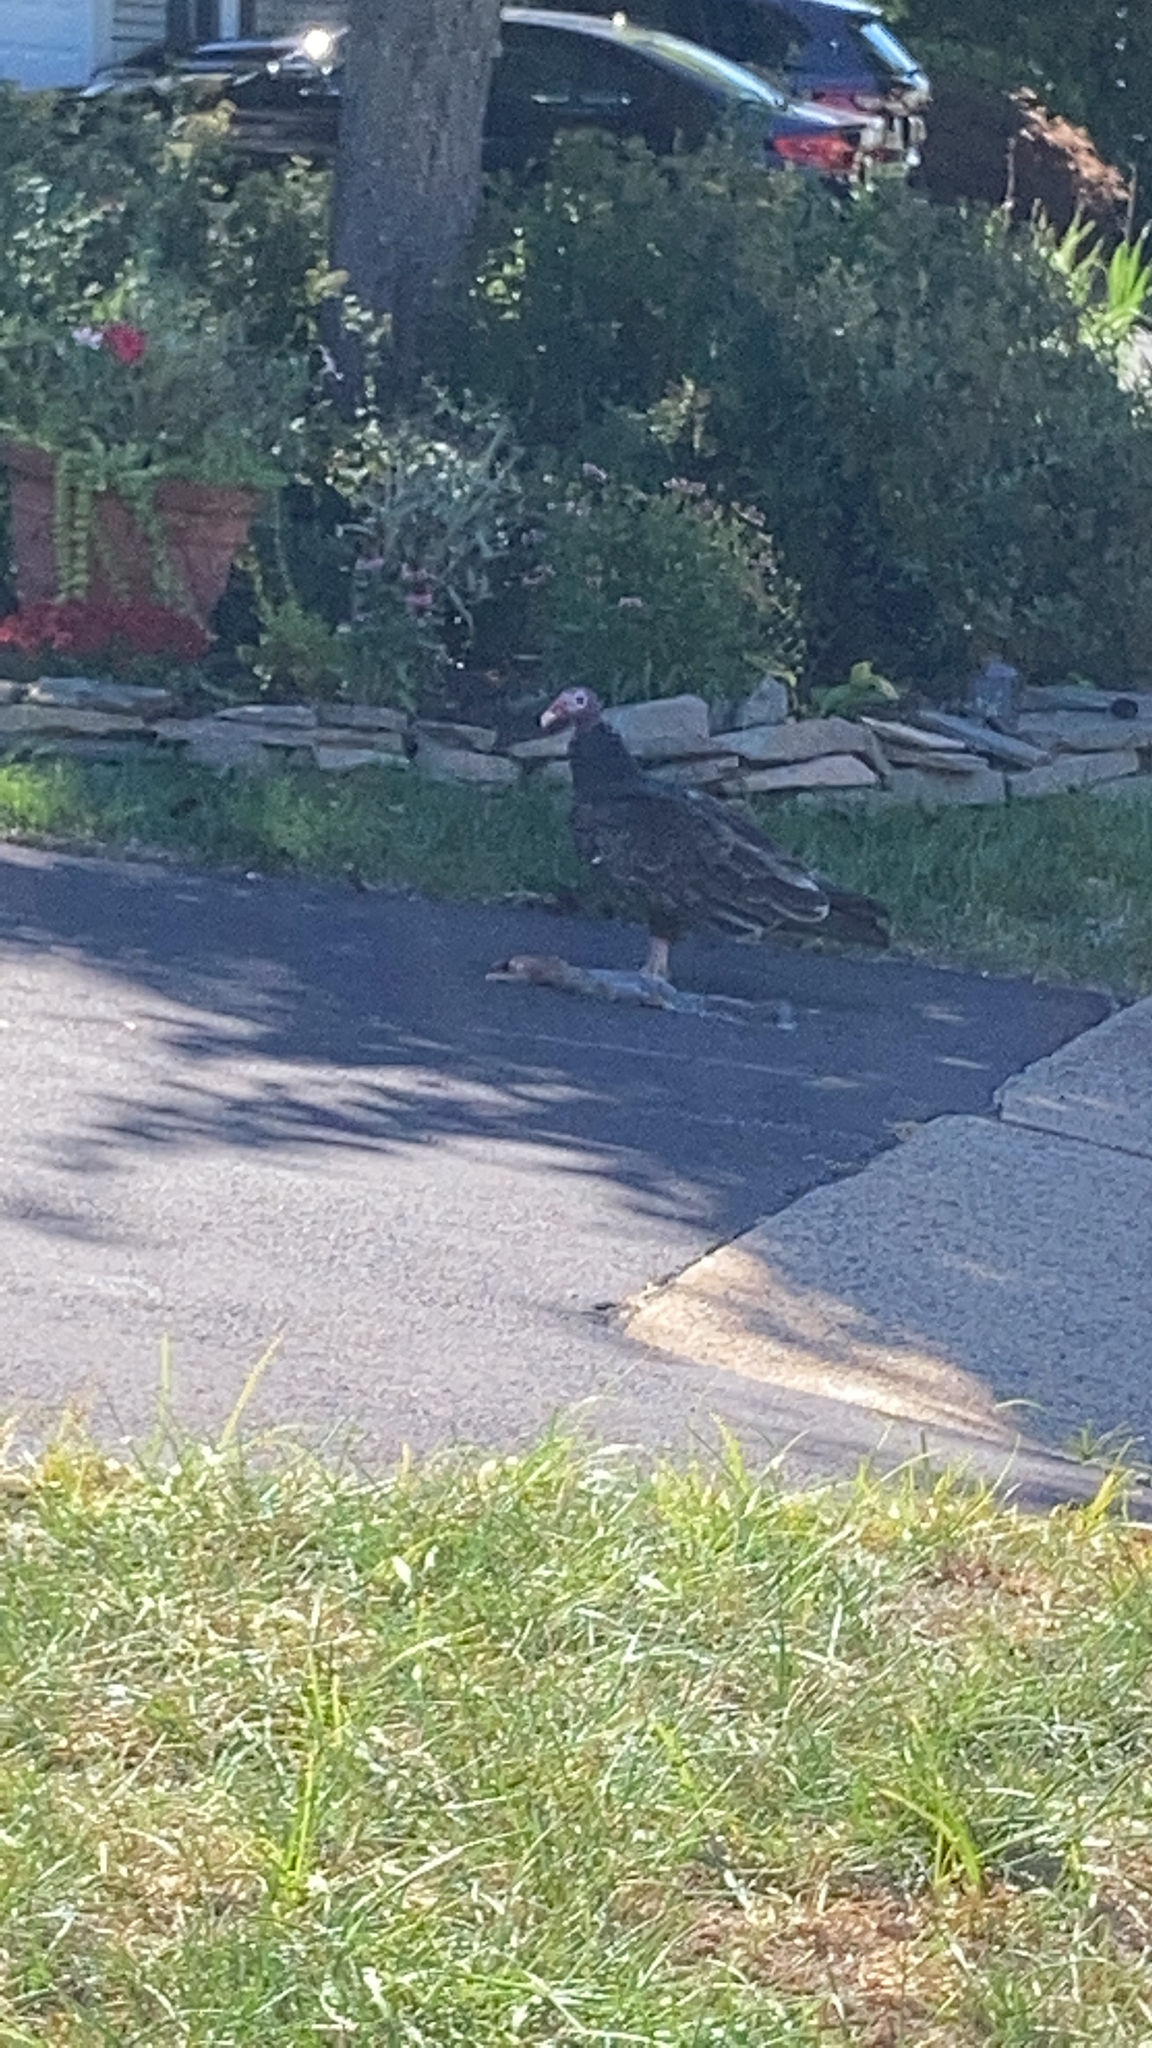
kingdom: Animalia
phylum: Chordata
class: Aves
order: Accipitriformes
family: Cathartidae
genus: Cathartes
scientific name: Cathartes aura
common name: Turkey vulture
